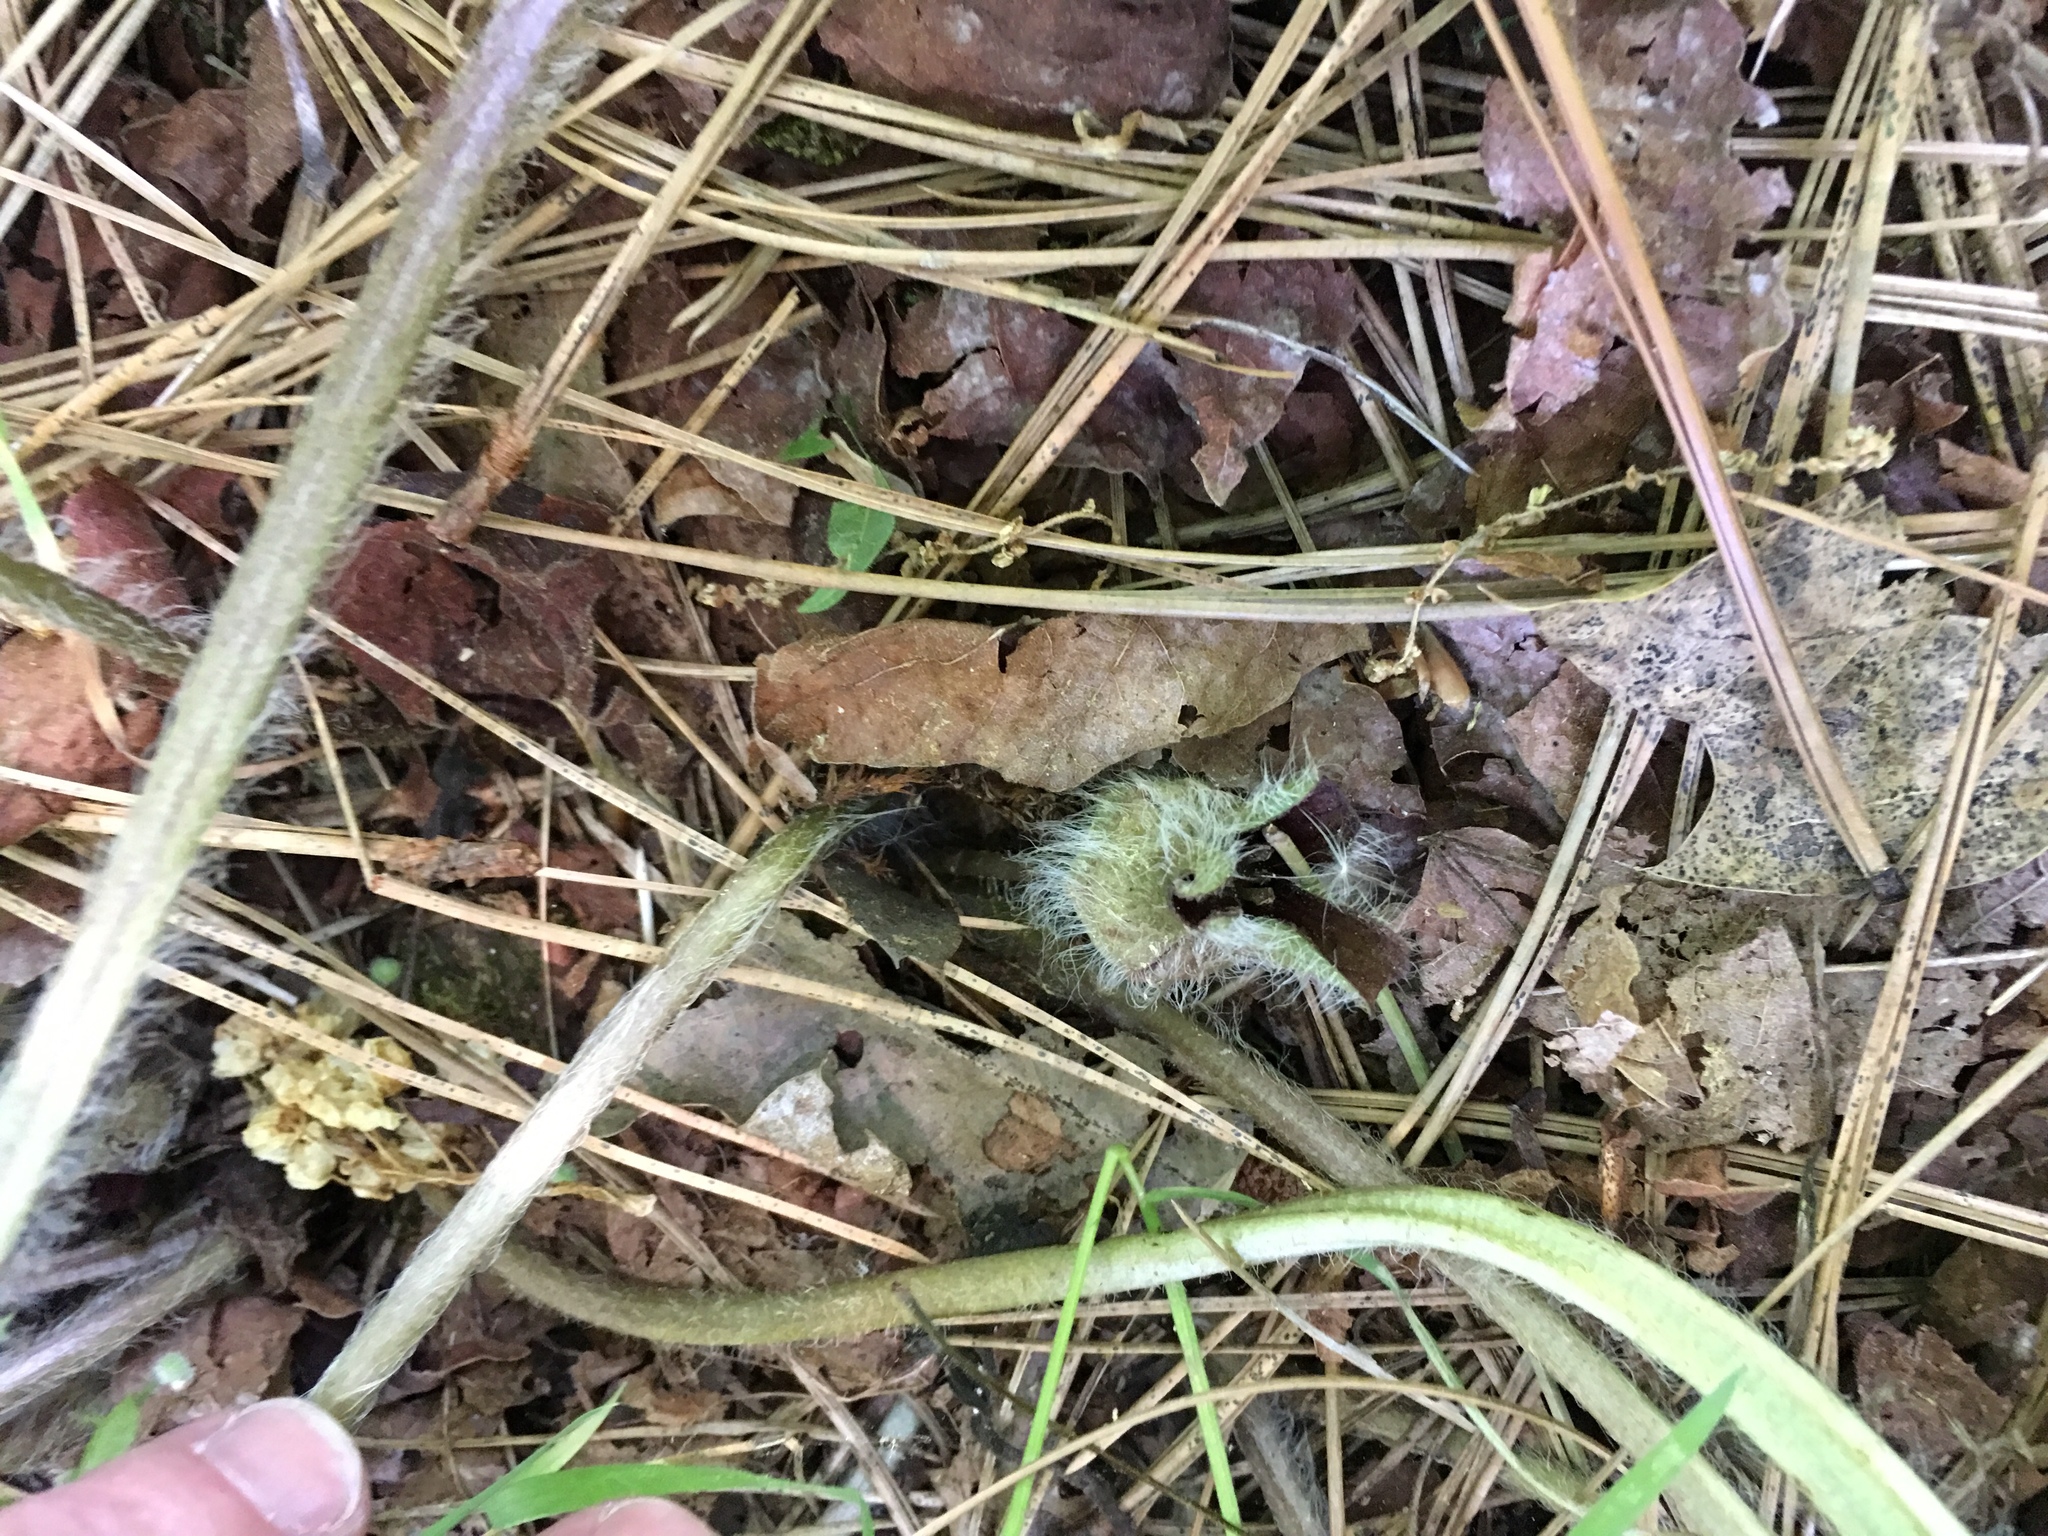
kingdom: Plantae
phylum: Tracheophyta
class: Magnoliopsida
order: Piperales
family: Aristolochiaceae
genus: Asarum
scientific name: Asarum hartwegii
